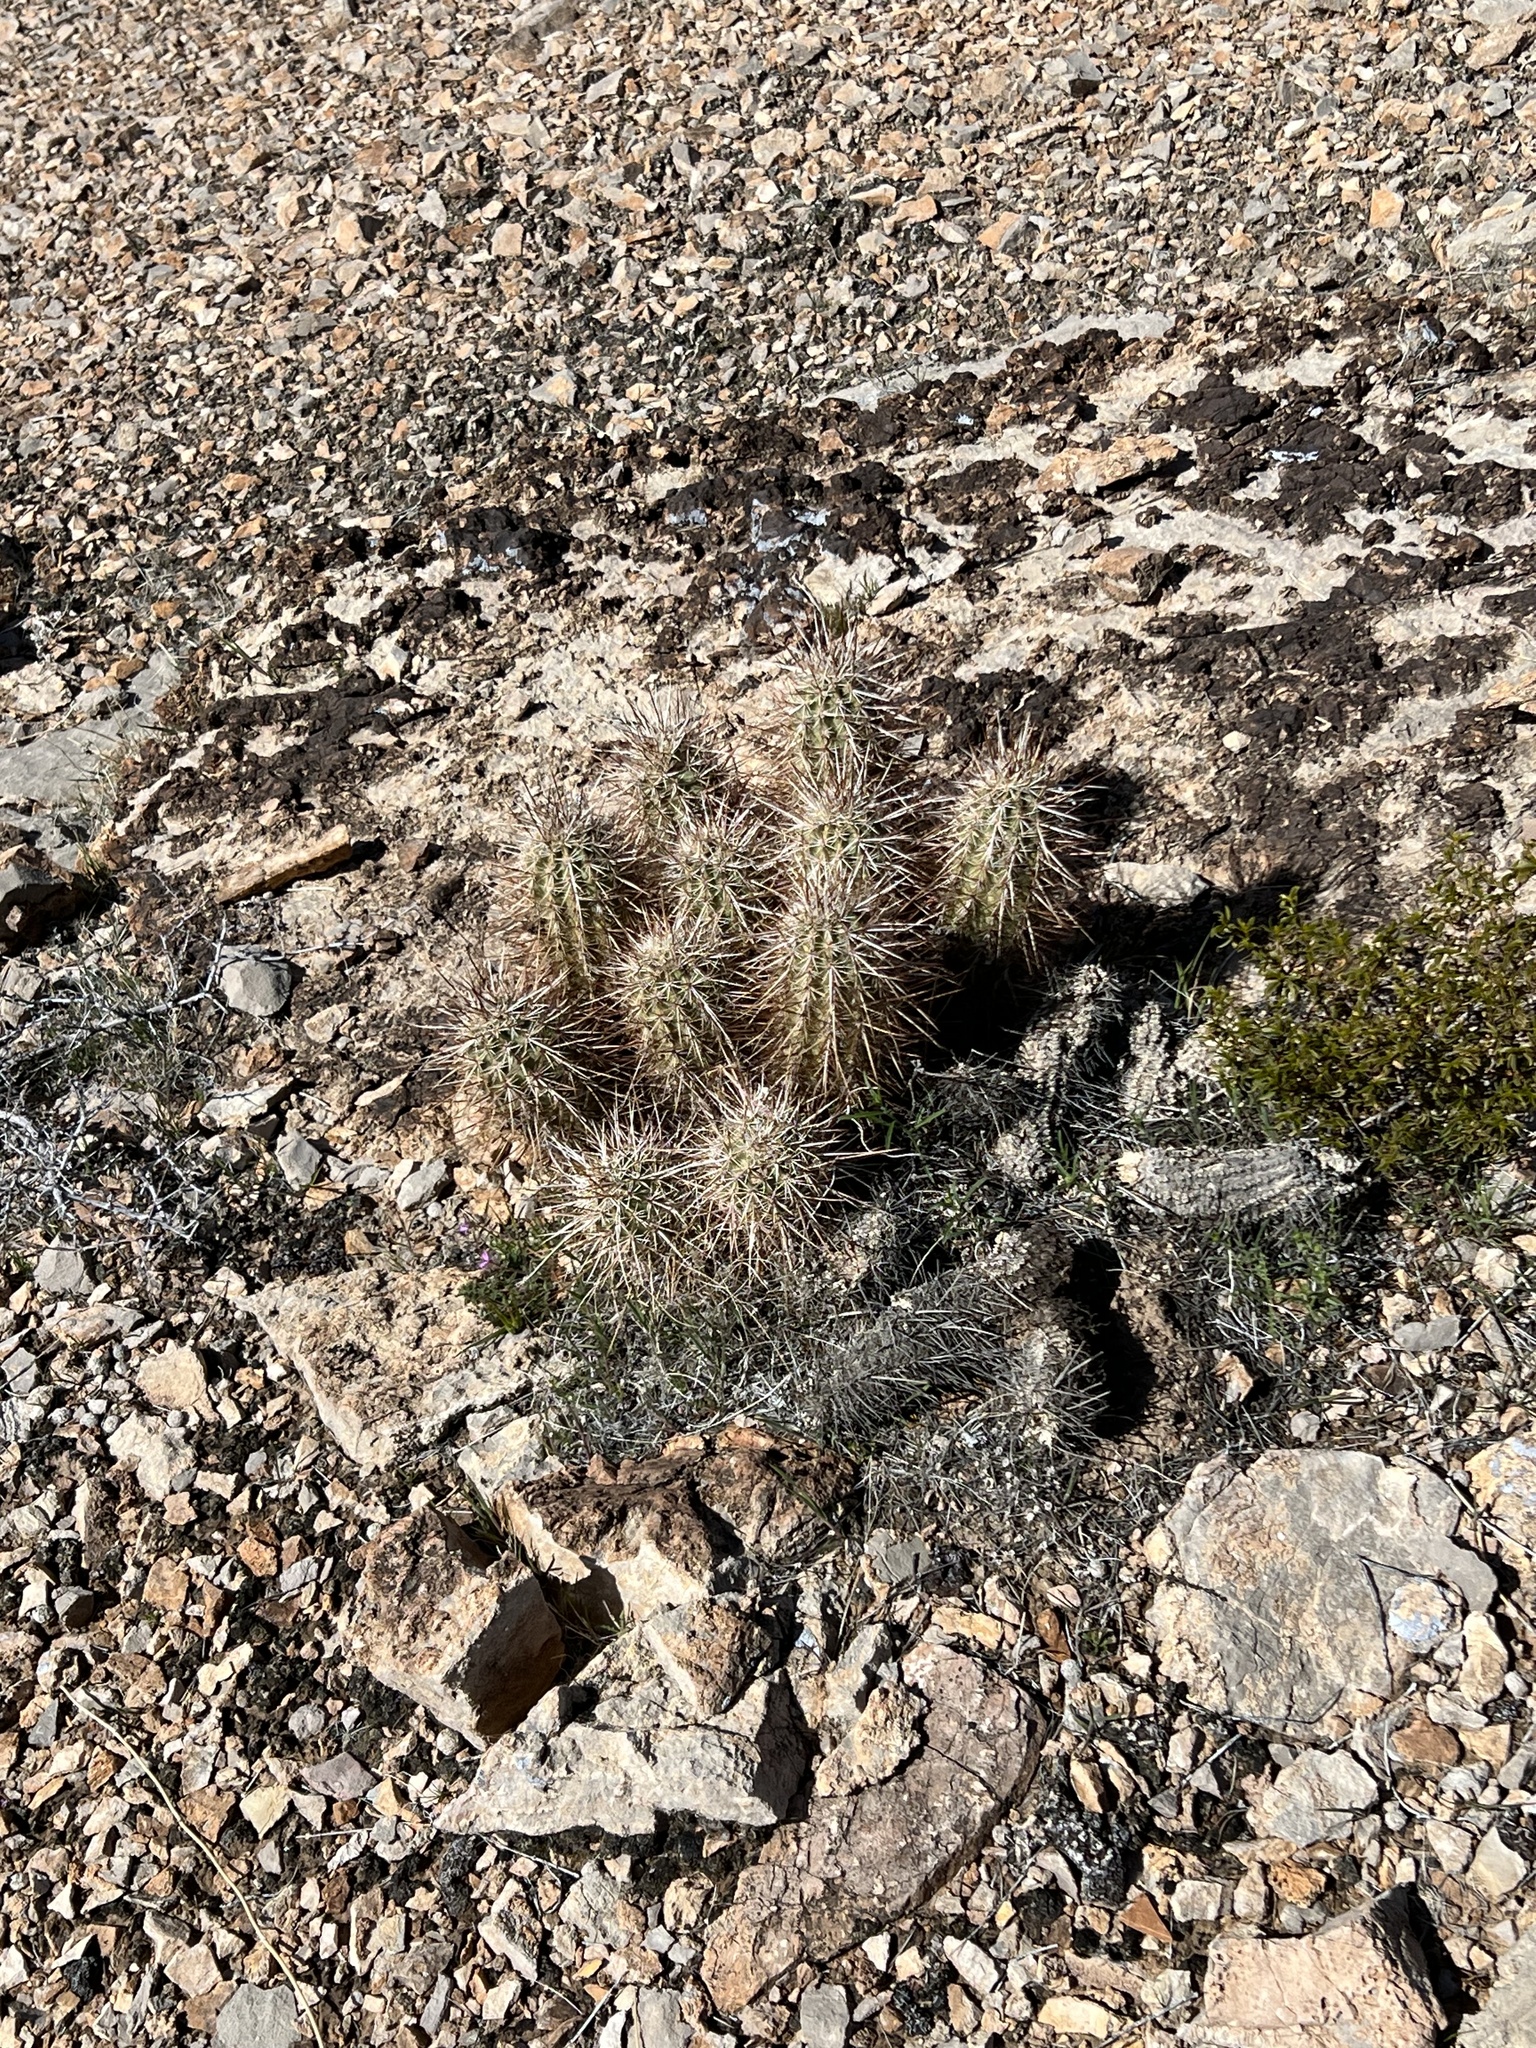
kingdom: Plantae
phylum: Tracheophyta
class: Magnoliopsida
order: Caryophyllales
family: Cactaceae
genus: Echinocereus
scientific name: Echinocereus engelmannii
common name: Engelmann's hedgehog cactus
